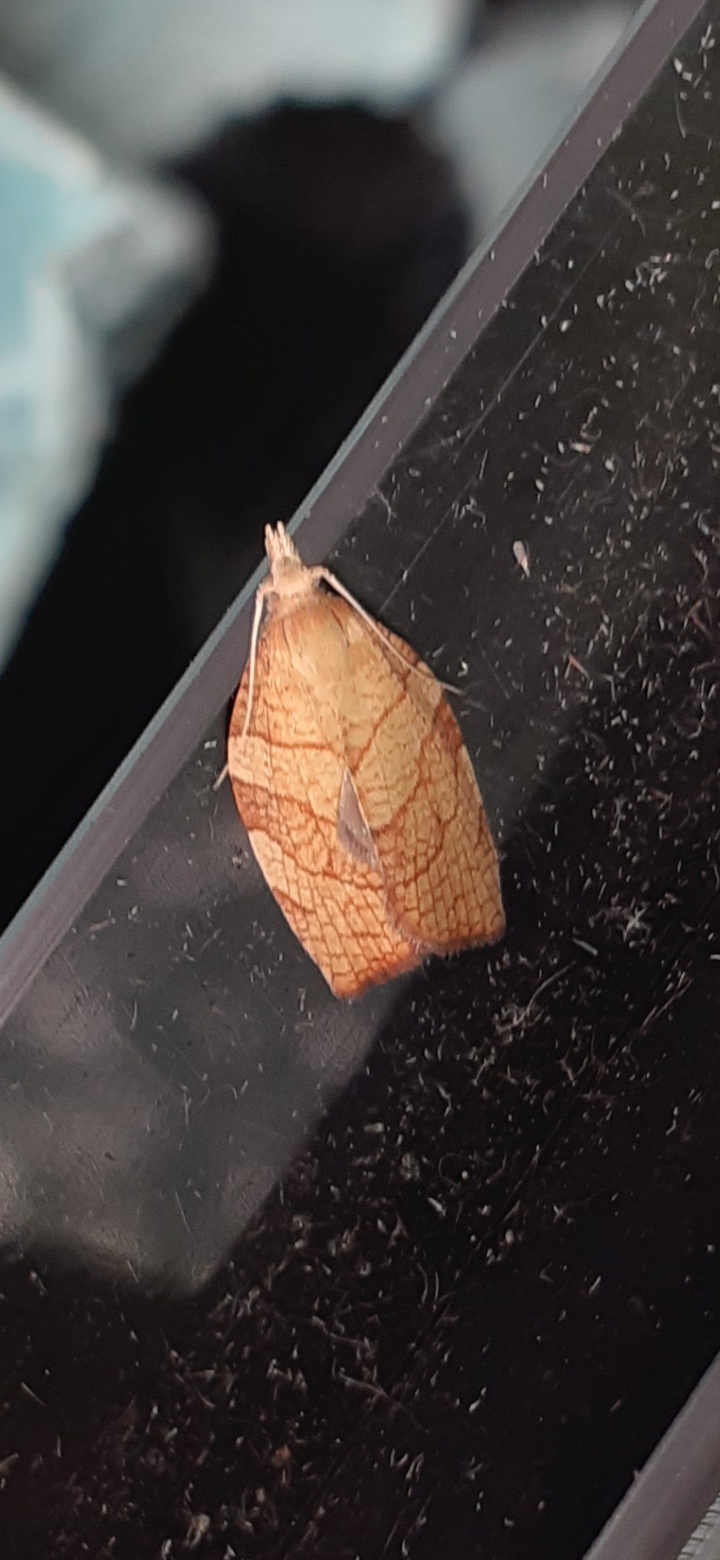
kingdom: Animalia
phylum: Arthropoda
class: Insecta
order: Lepidoptera
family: Tortricidae
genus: Pandemis
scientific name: Pandemis corylana
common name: Chequered fruit-tree tortrix
